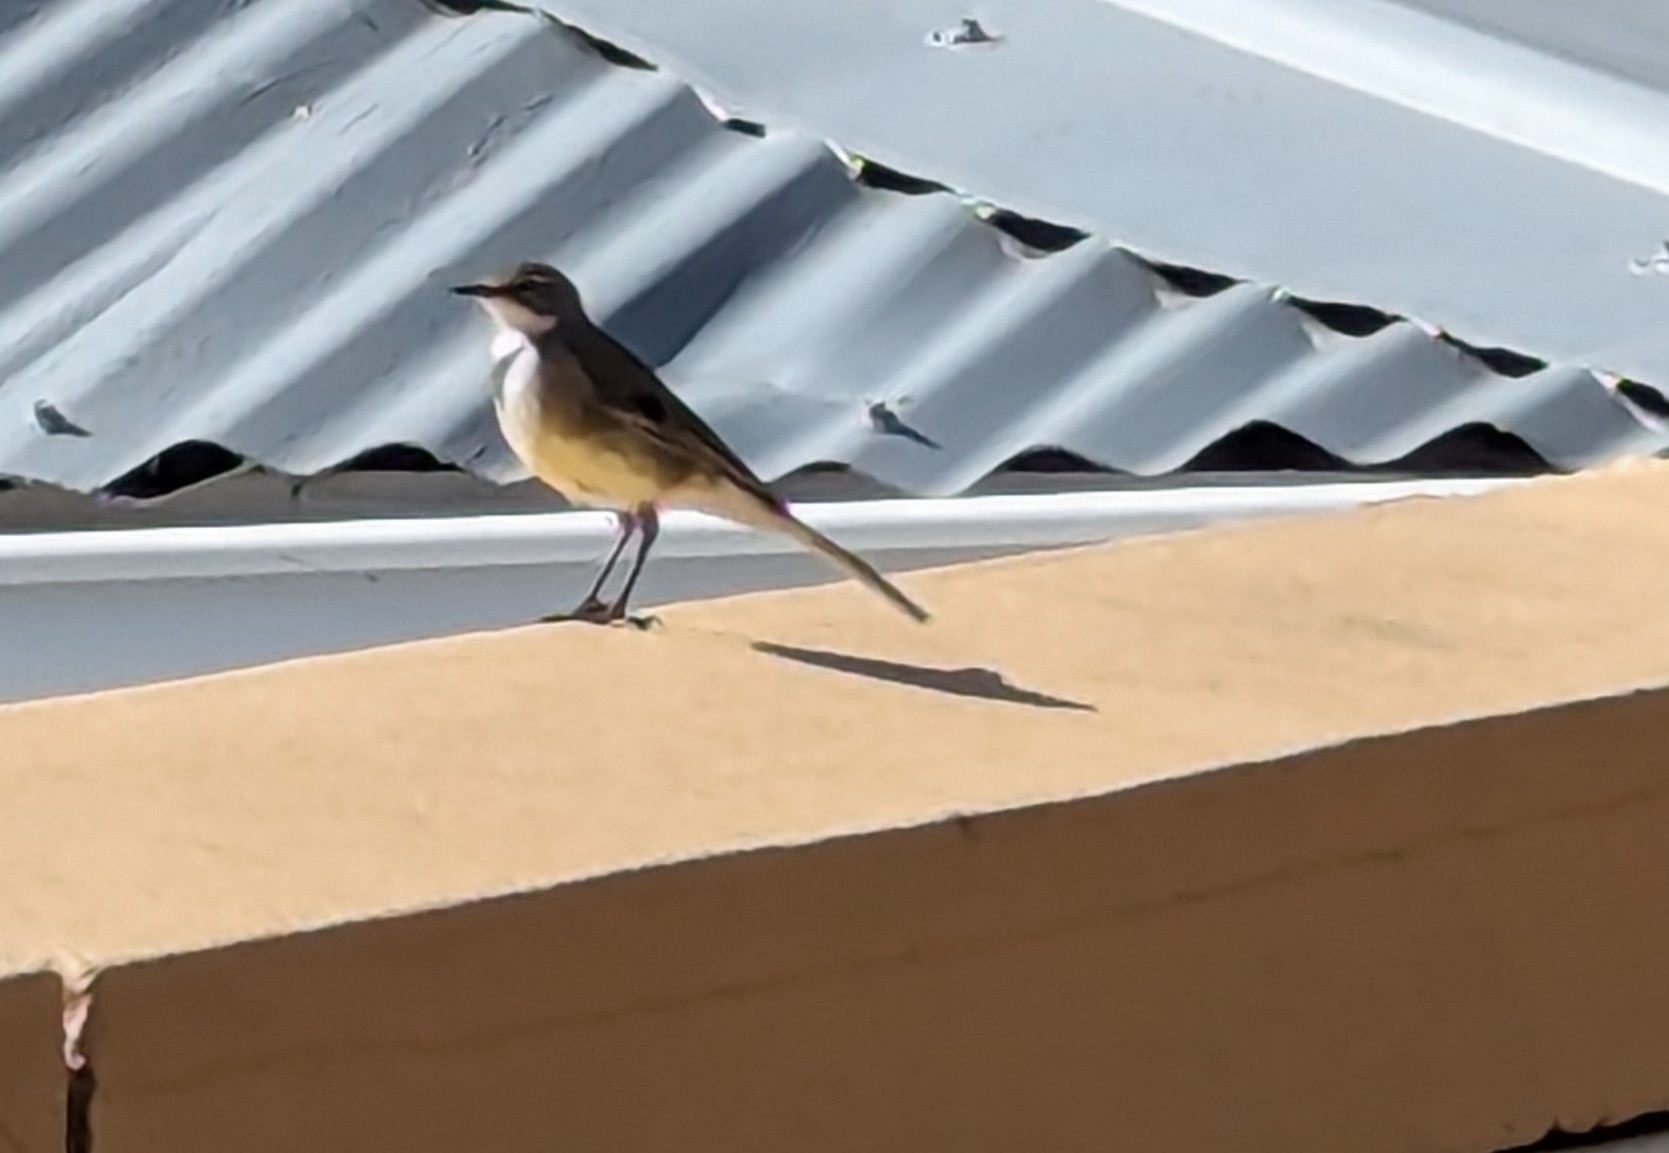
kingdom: Animalia
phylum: Chordata
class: Aves
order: Passeriformes
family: Motacillidae
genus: Motacilla
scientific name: Motacilla capensis
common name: Cape wagtail
